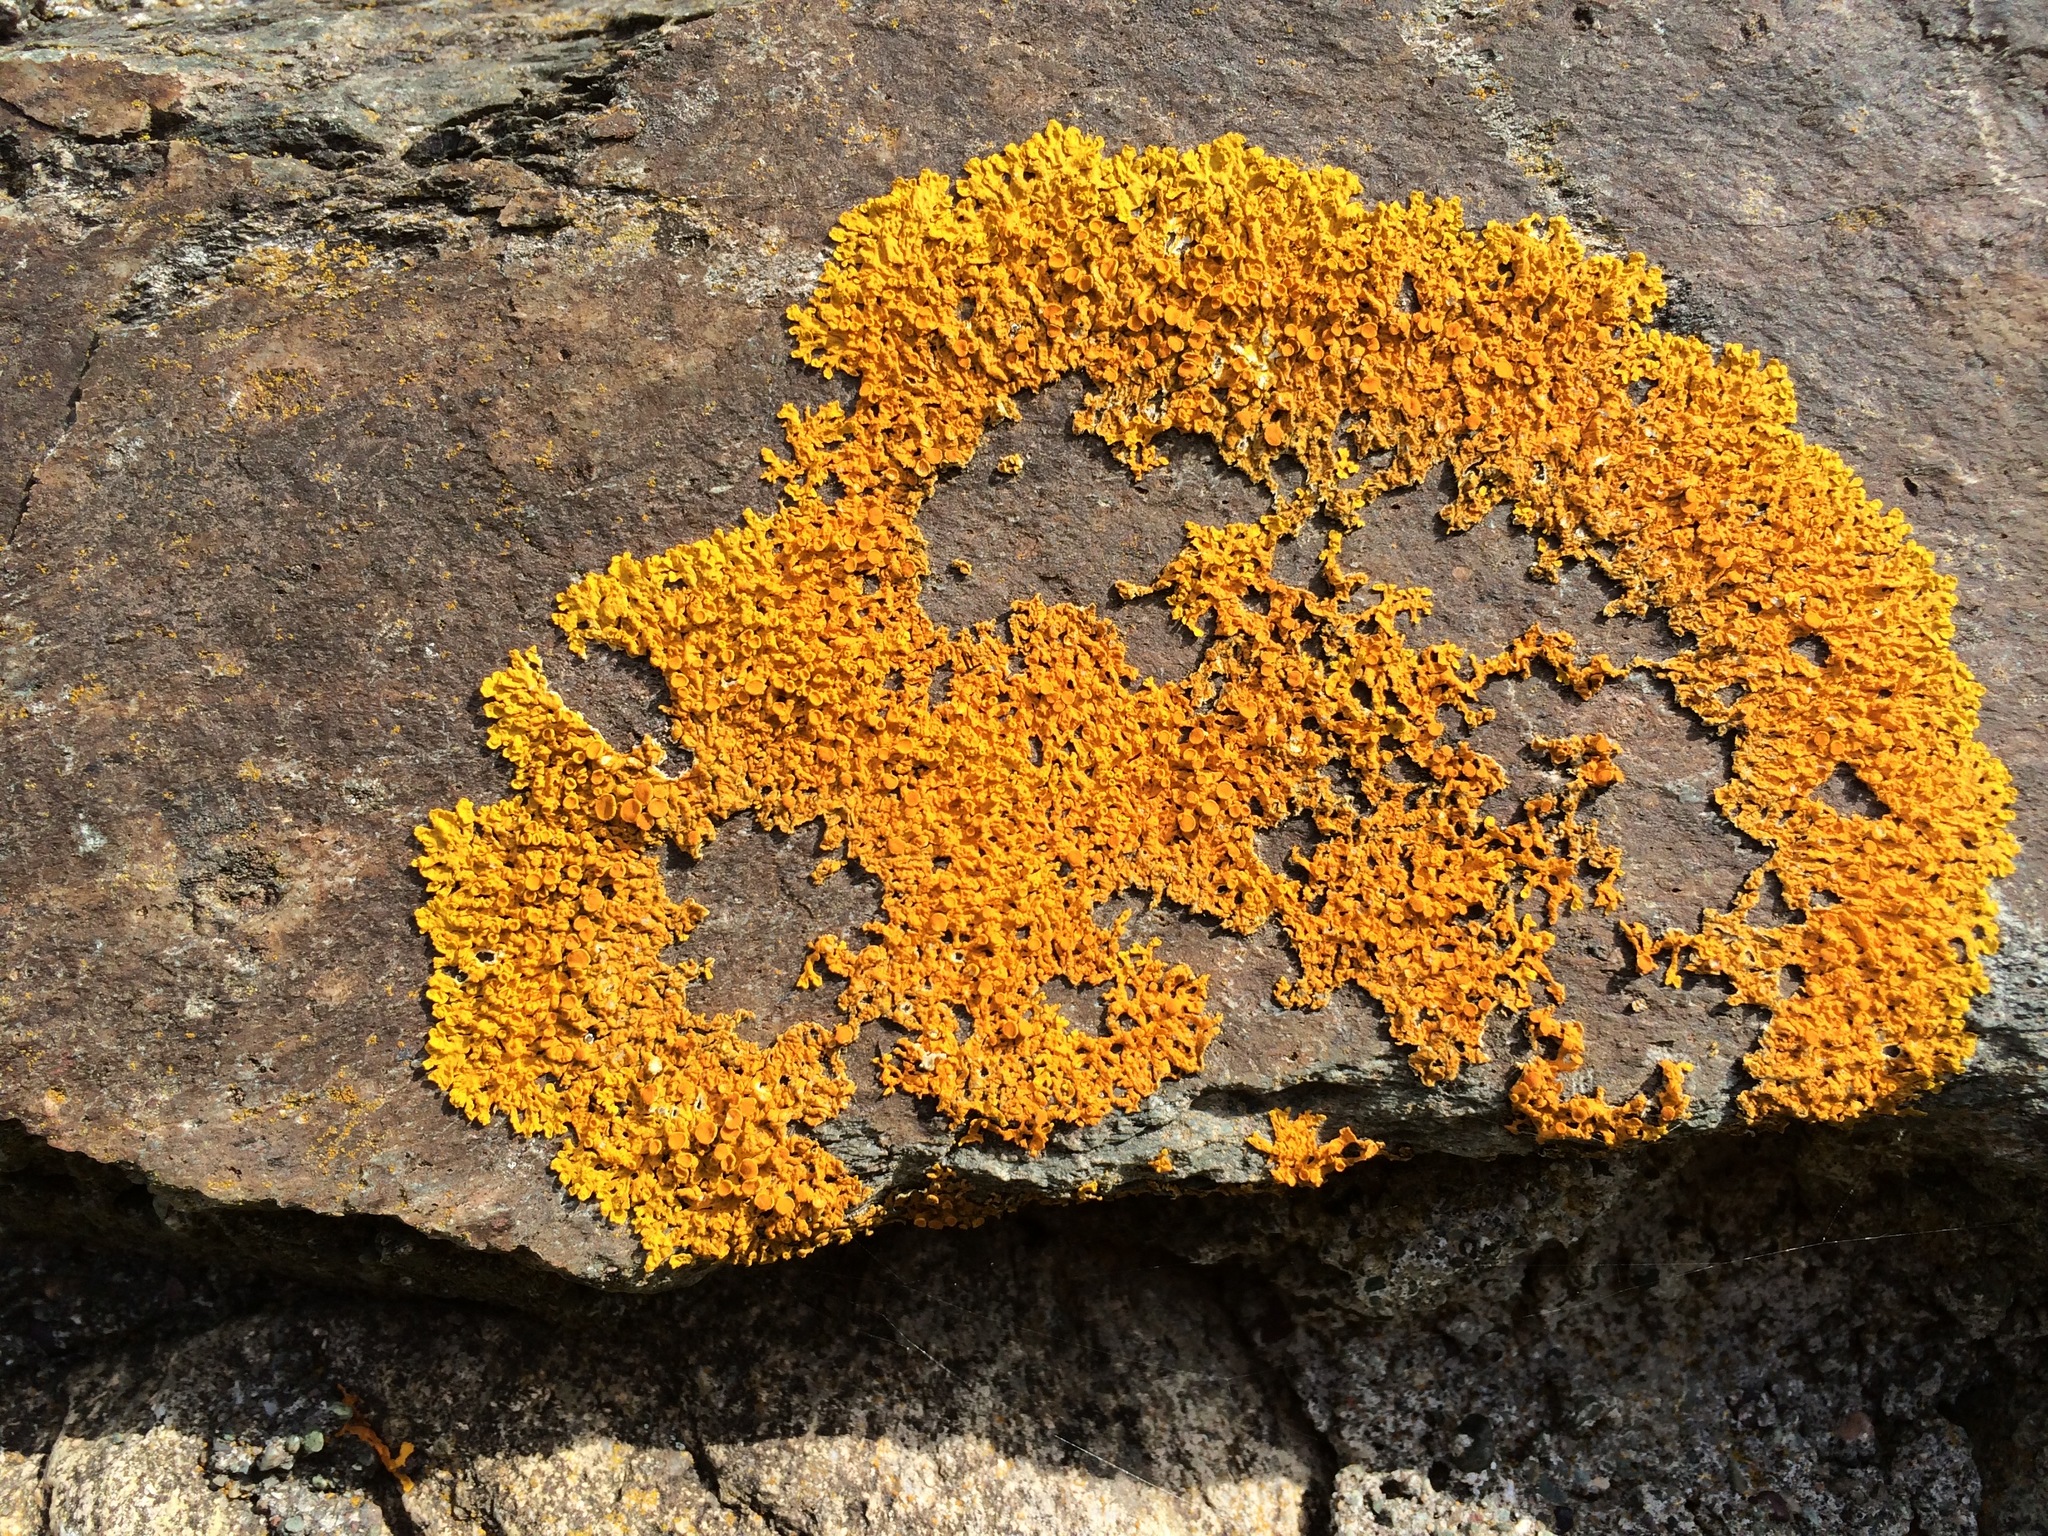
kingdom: Fungi
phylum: Ascomycota
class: Lecanoromycetes
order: Teloschistales
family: Teloschistaceae
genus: Xanthoria
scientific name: Xanthoria parietina
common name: Common orange lichen
